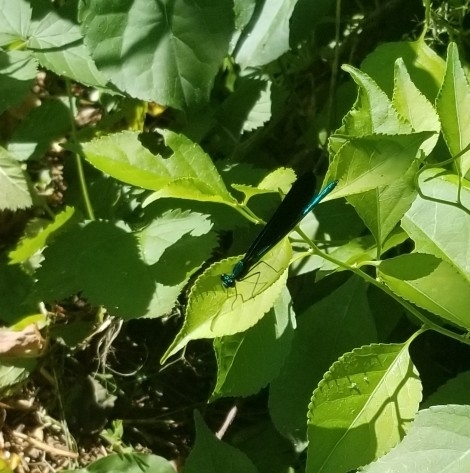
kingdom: Animalia
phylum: Arthropoda
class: Insecta
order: Odonata
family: Calopterygidae
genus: Calopteryx
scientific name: Calopteryx maculata
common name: Ebony jewelwing
